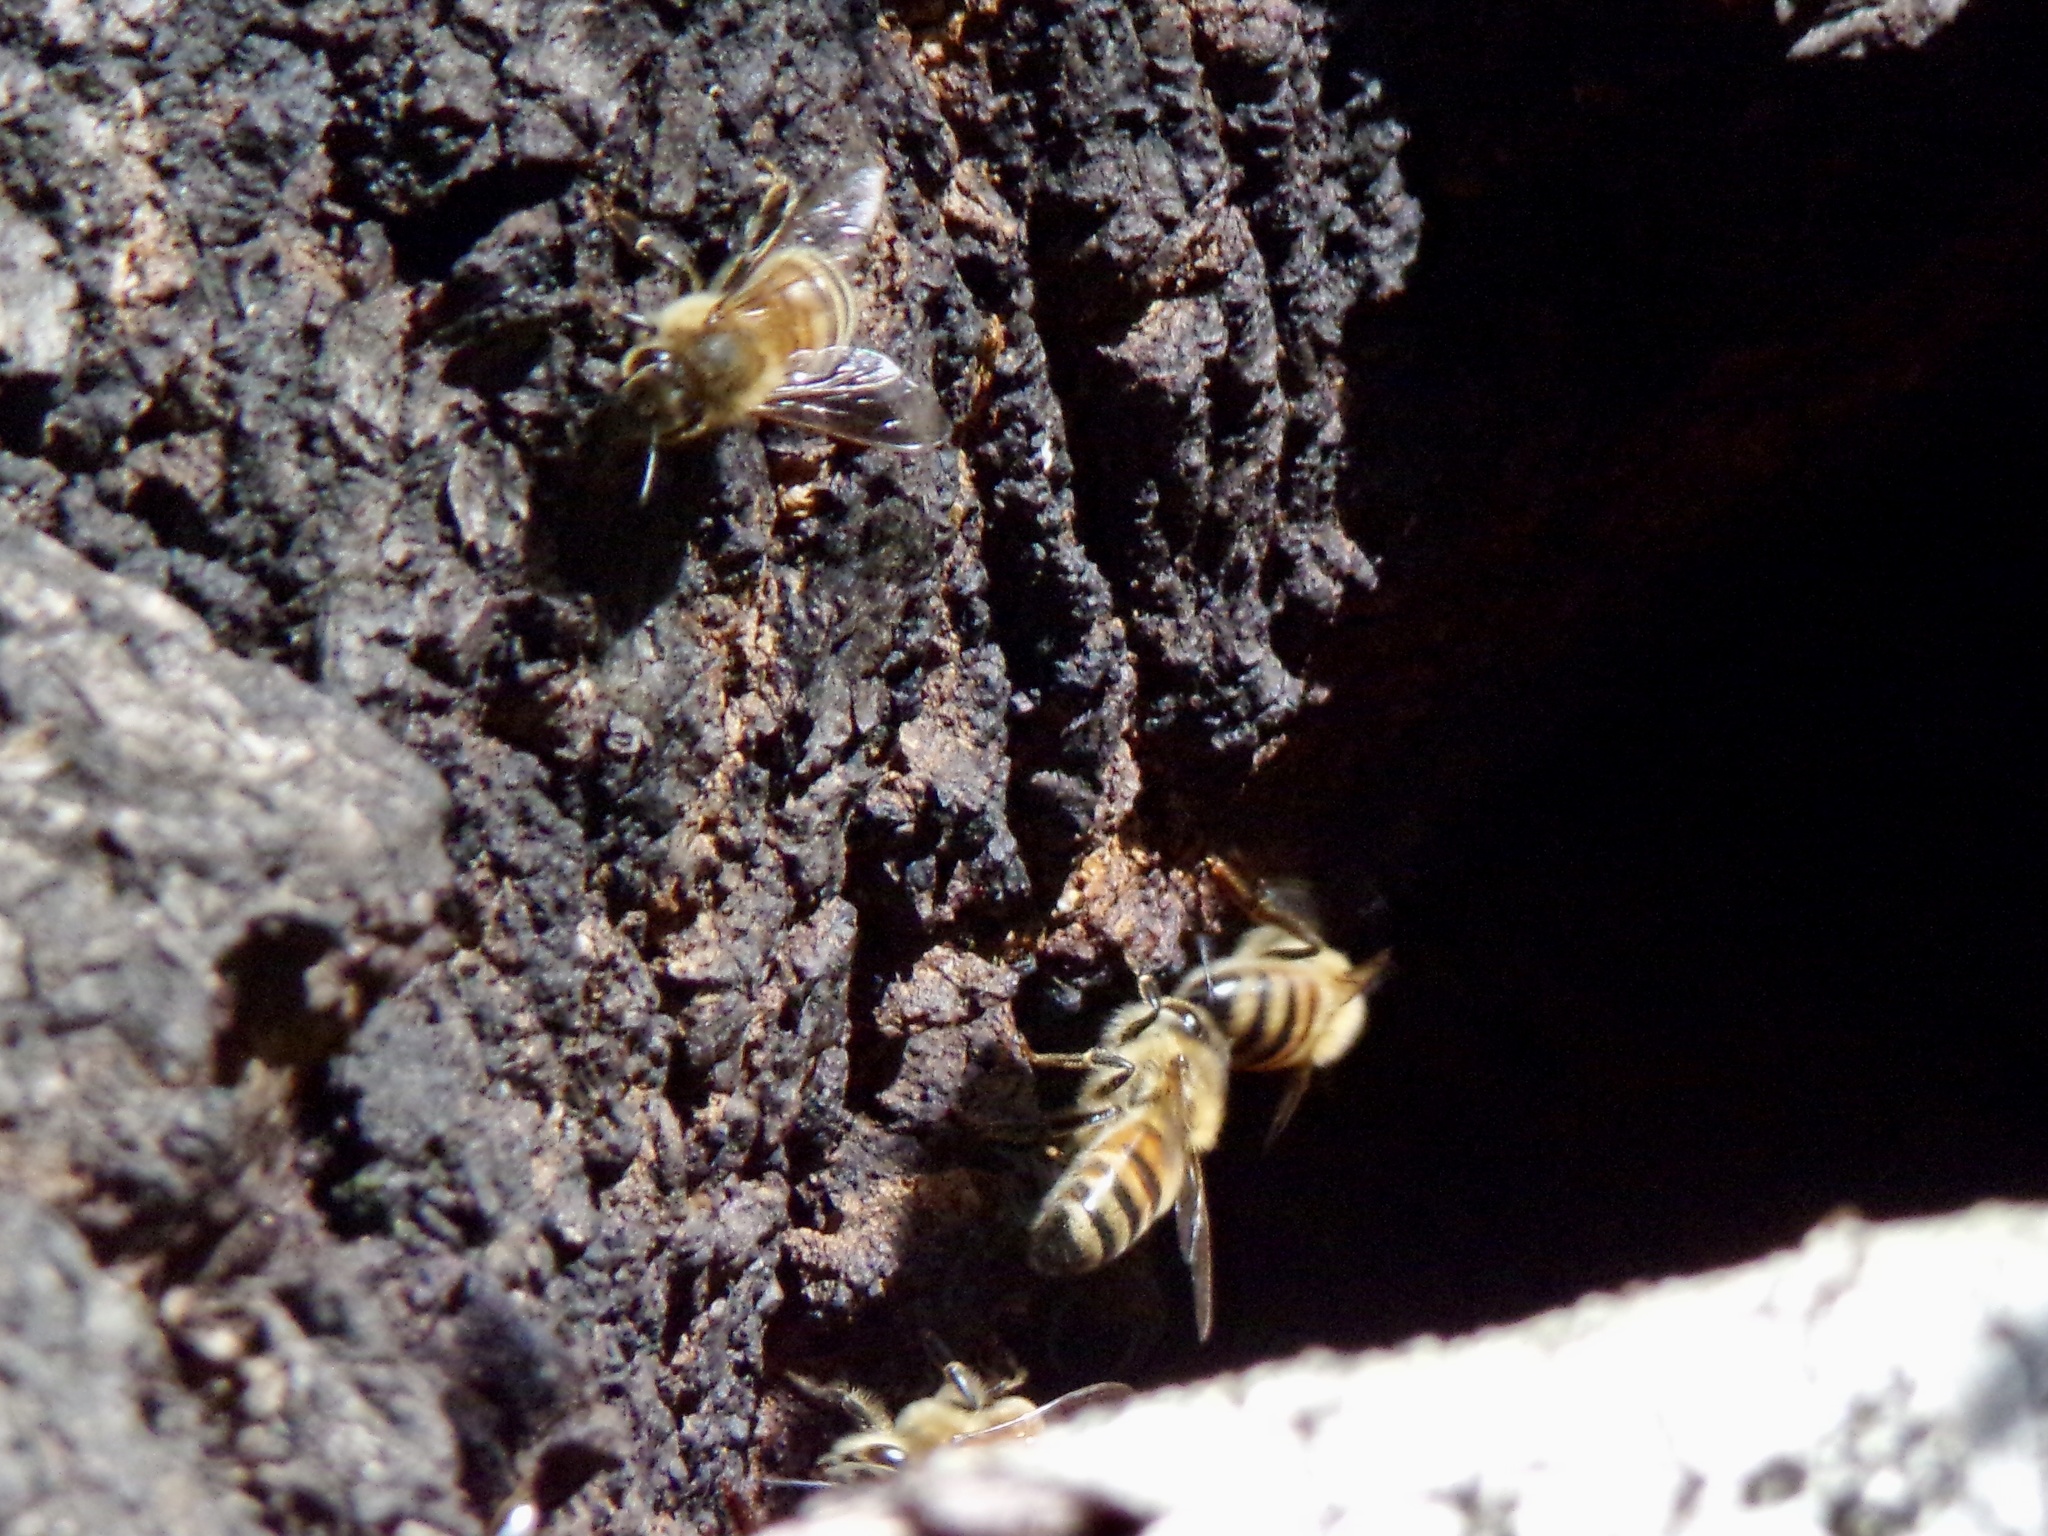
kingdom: Animalia
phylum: Arthropoda
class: Insecta
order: Hymenoptera
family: Apidae
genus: Apis
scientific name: Apis mellifera
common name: Honey bee
